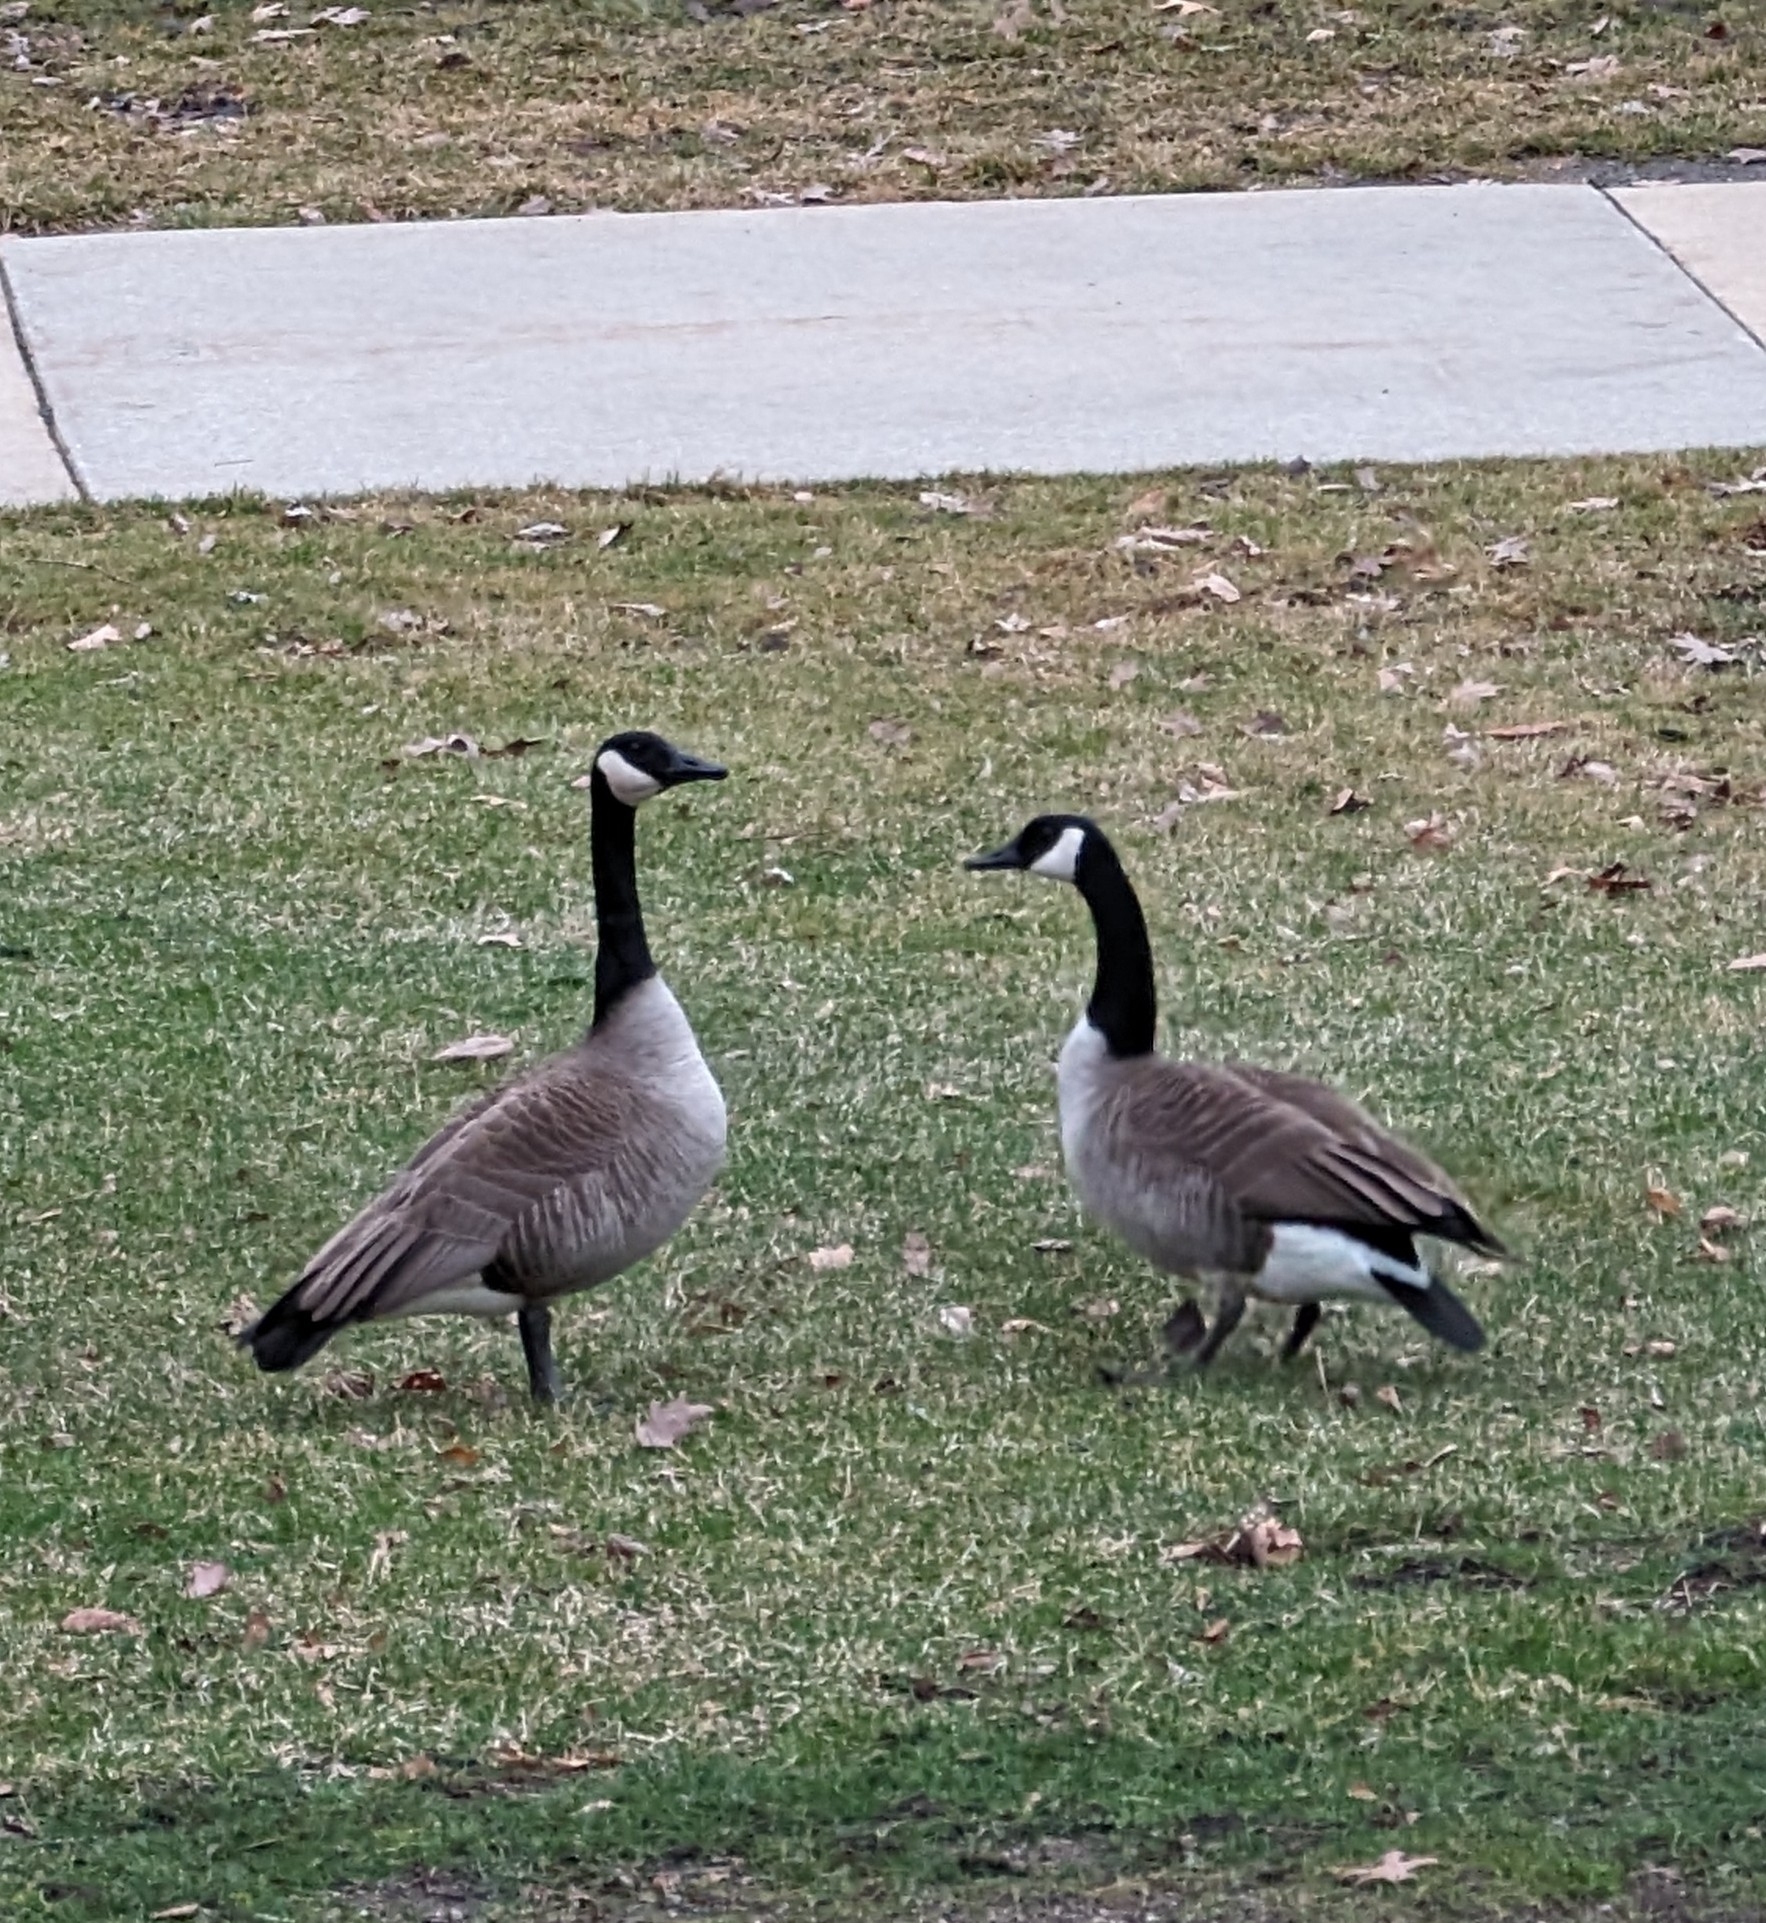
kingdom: Animalia
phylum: Chordata
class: Aves
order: Anseriformes
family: Anatidae
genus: Branta
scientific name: Branta canadensis
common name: Canada goose
